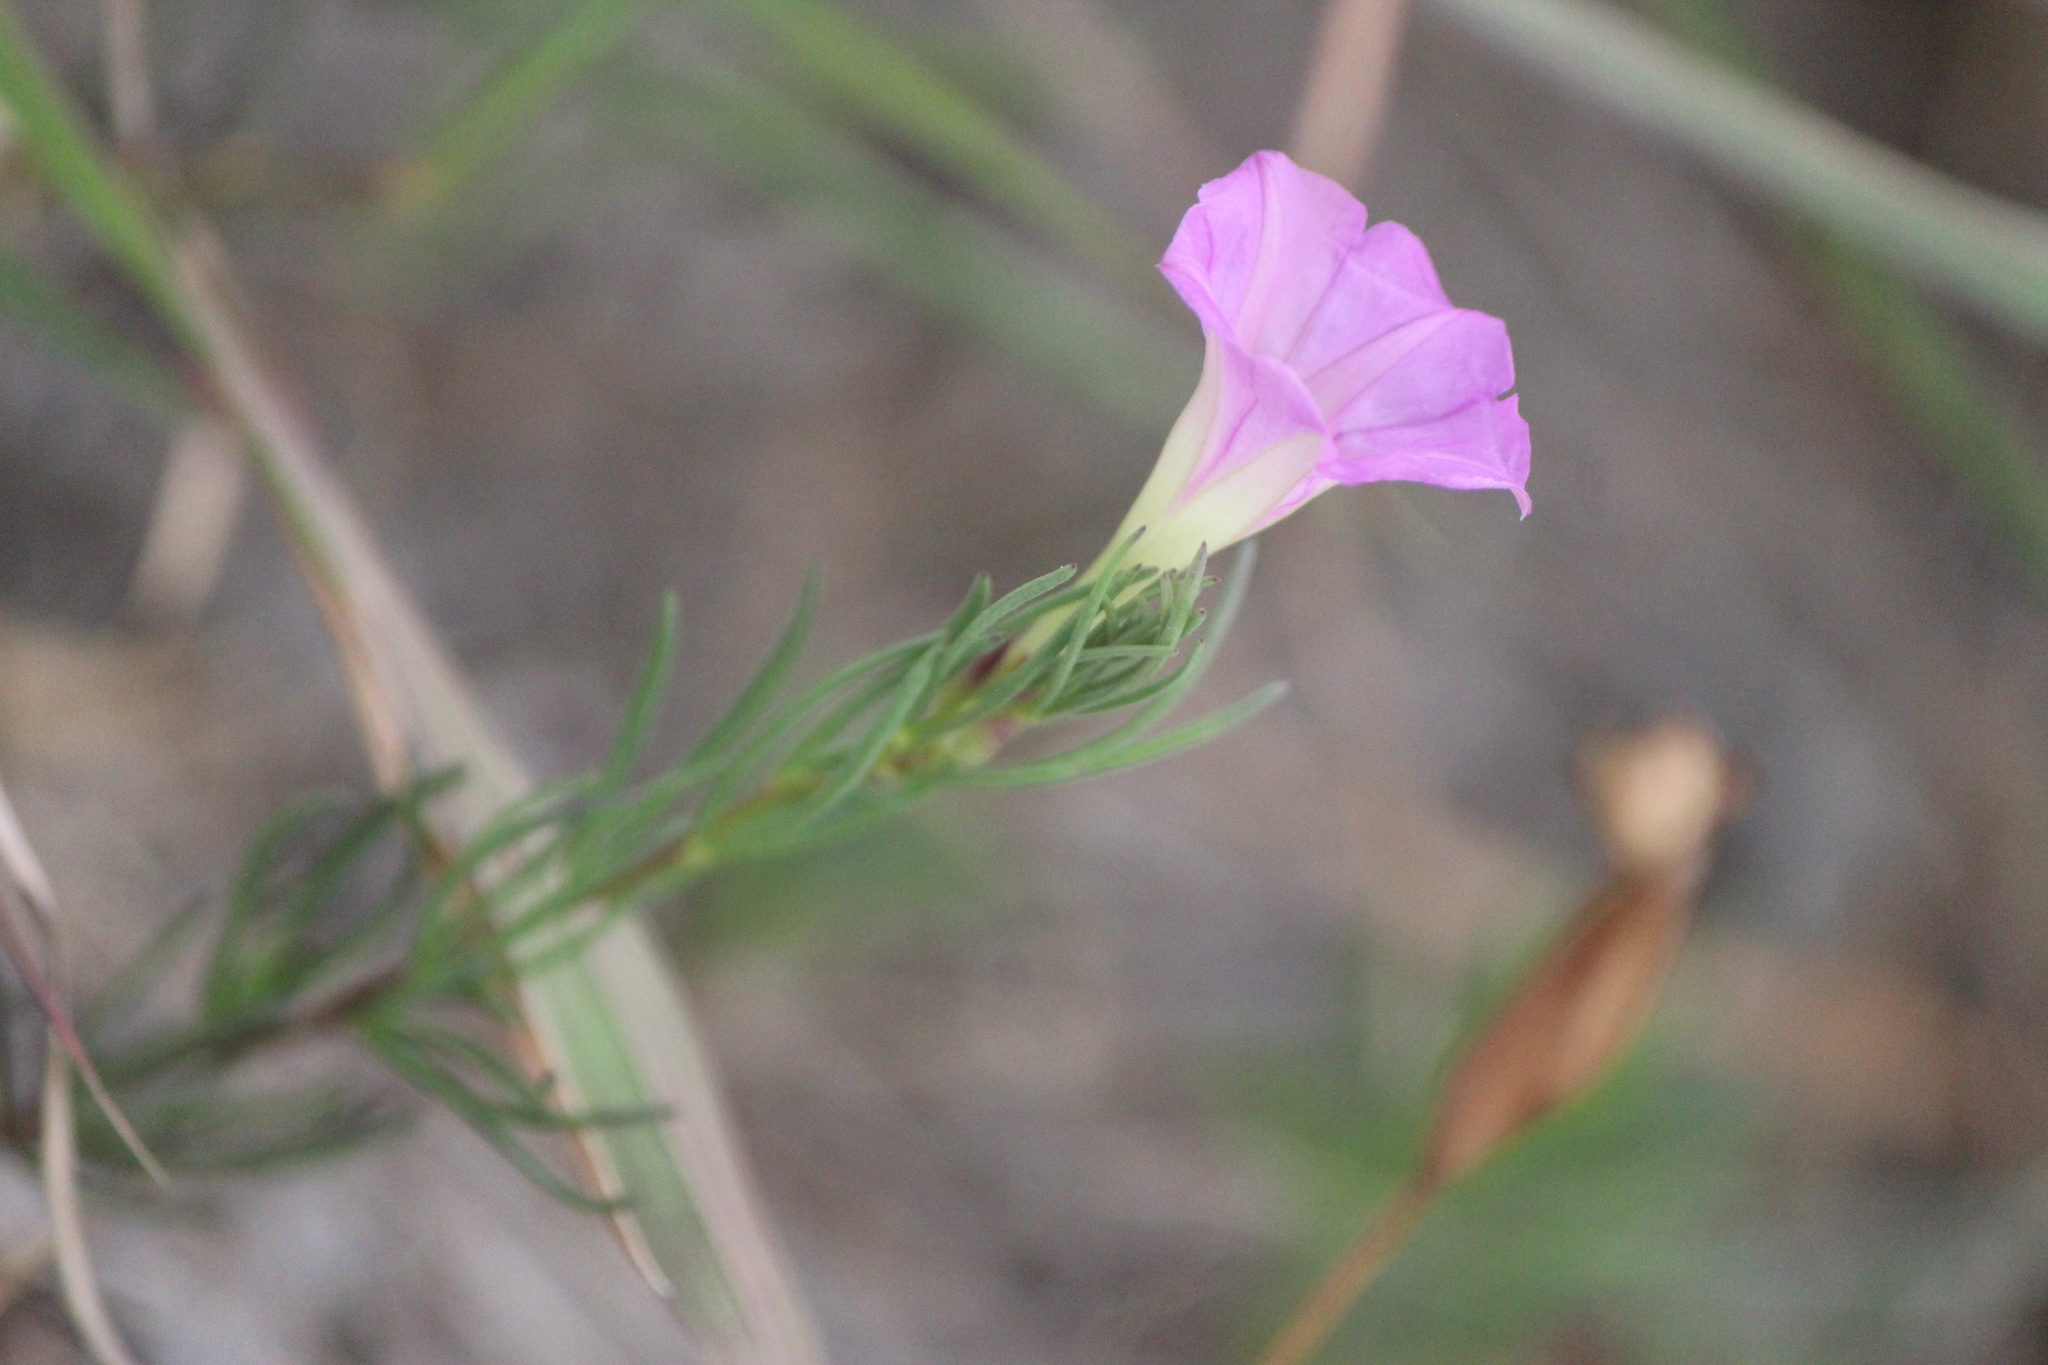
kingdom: Plantae
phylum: Tracheophyta
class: Magnoliopsida
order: Solanales
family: Convolvulaceae
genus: Ipomoea
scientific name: Ipomoea capillacea
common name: Purple morning-glory
